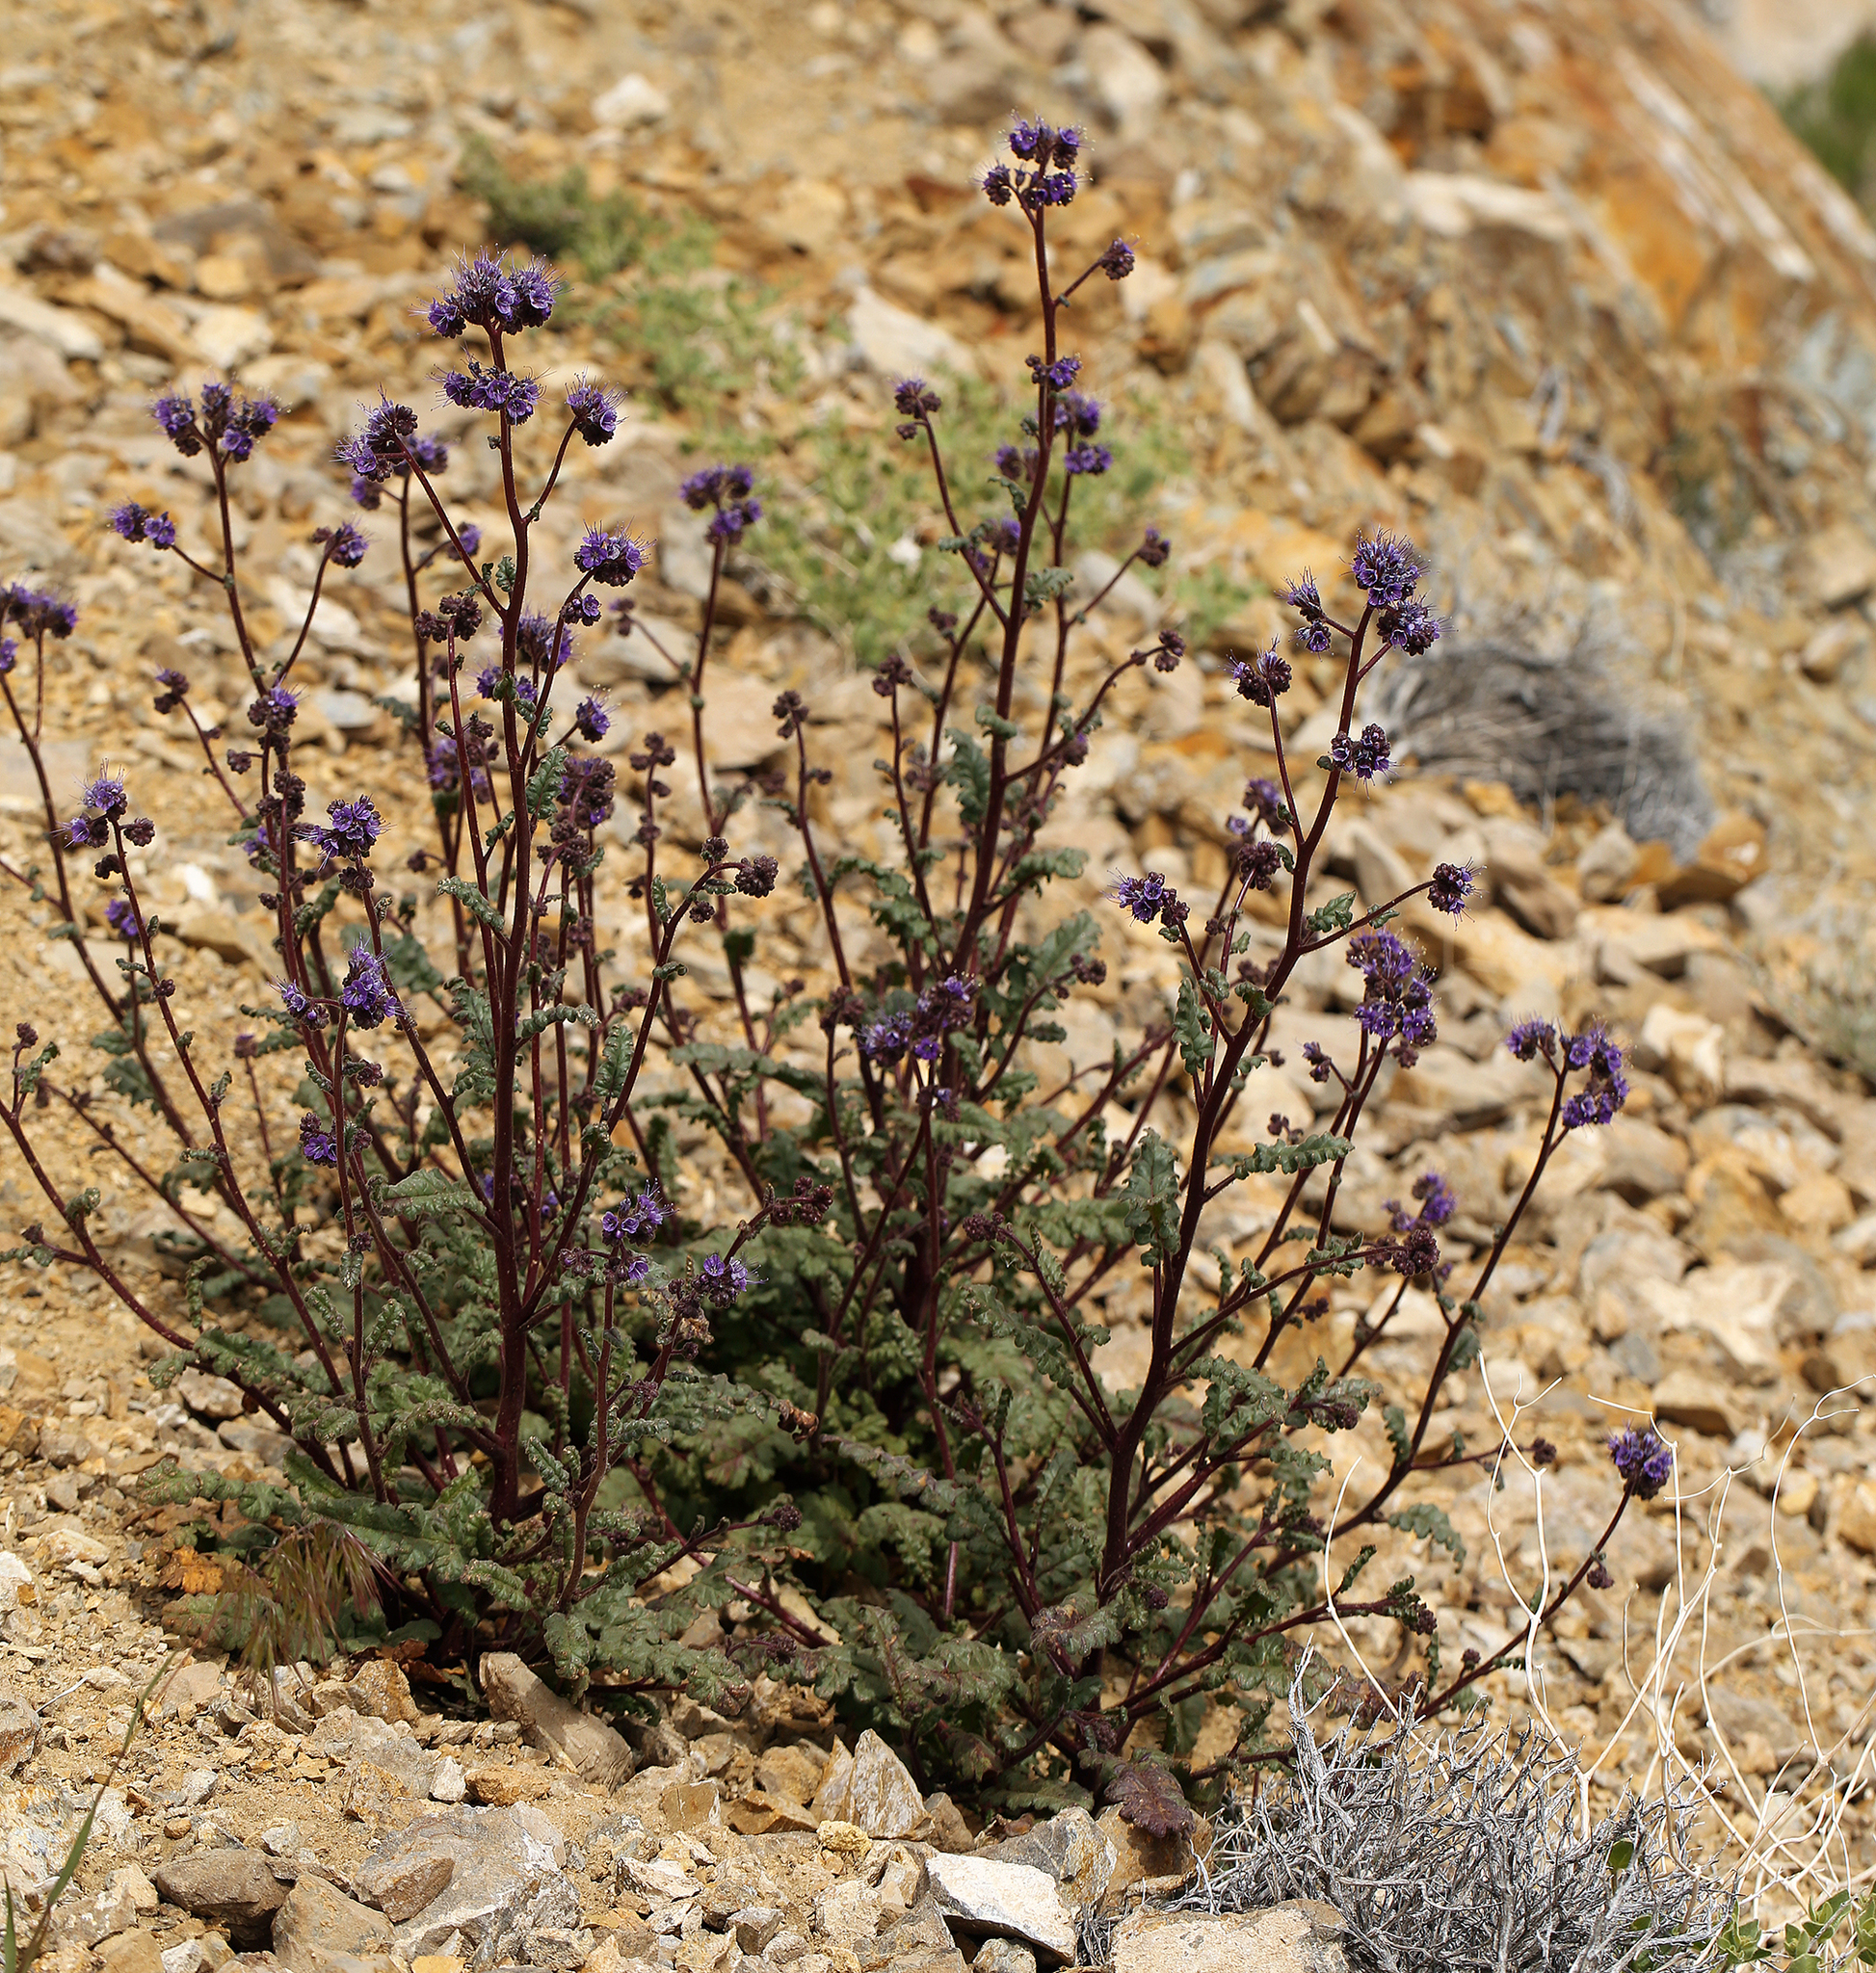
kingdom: Plantae
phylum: Tracheophyta
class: Magnoliopsida
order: Boraginales
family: Hydrophyllaceae
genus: Phacelia
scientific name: Phacelia crenulata
